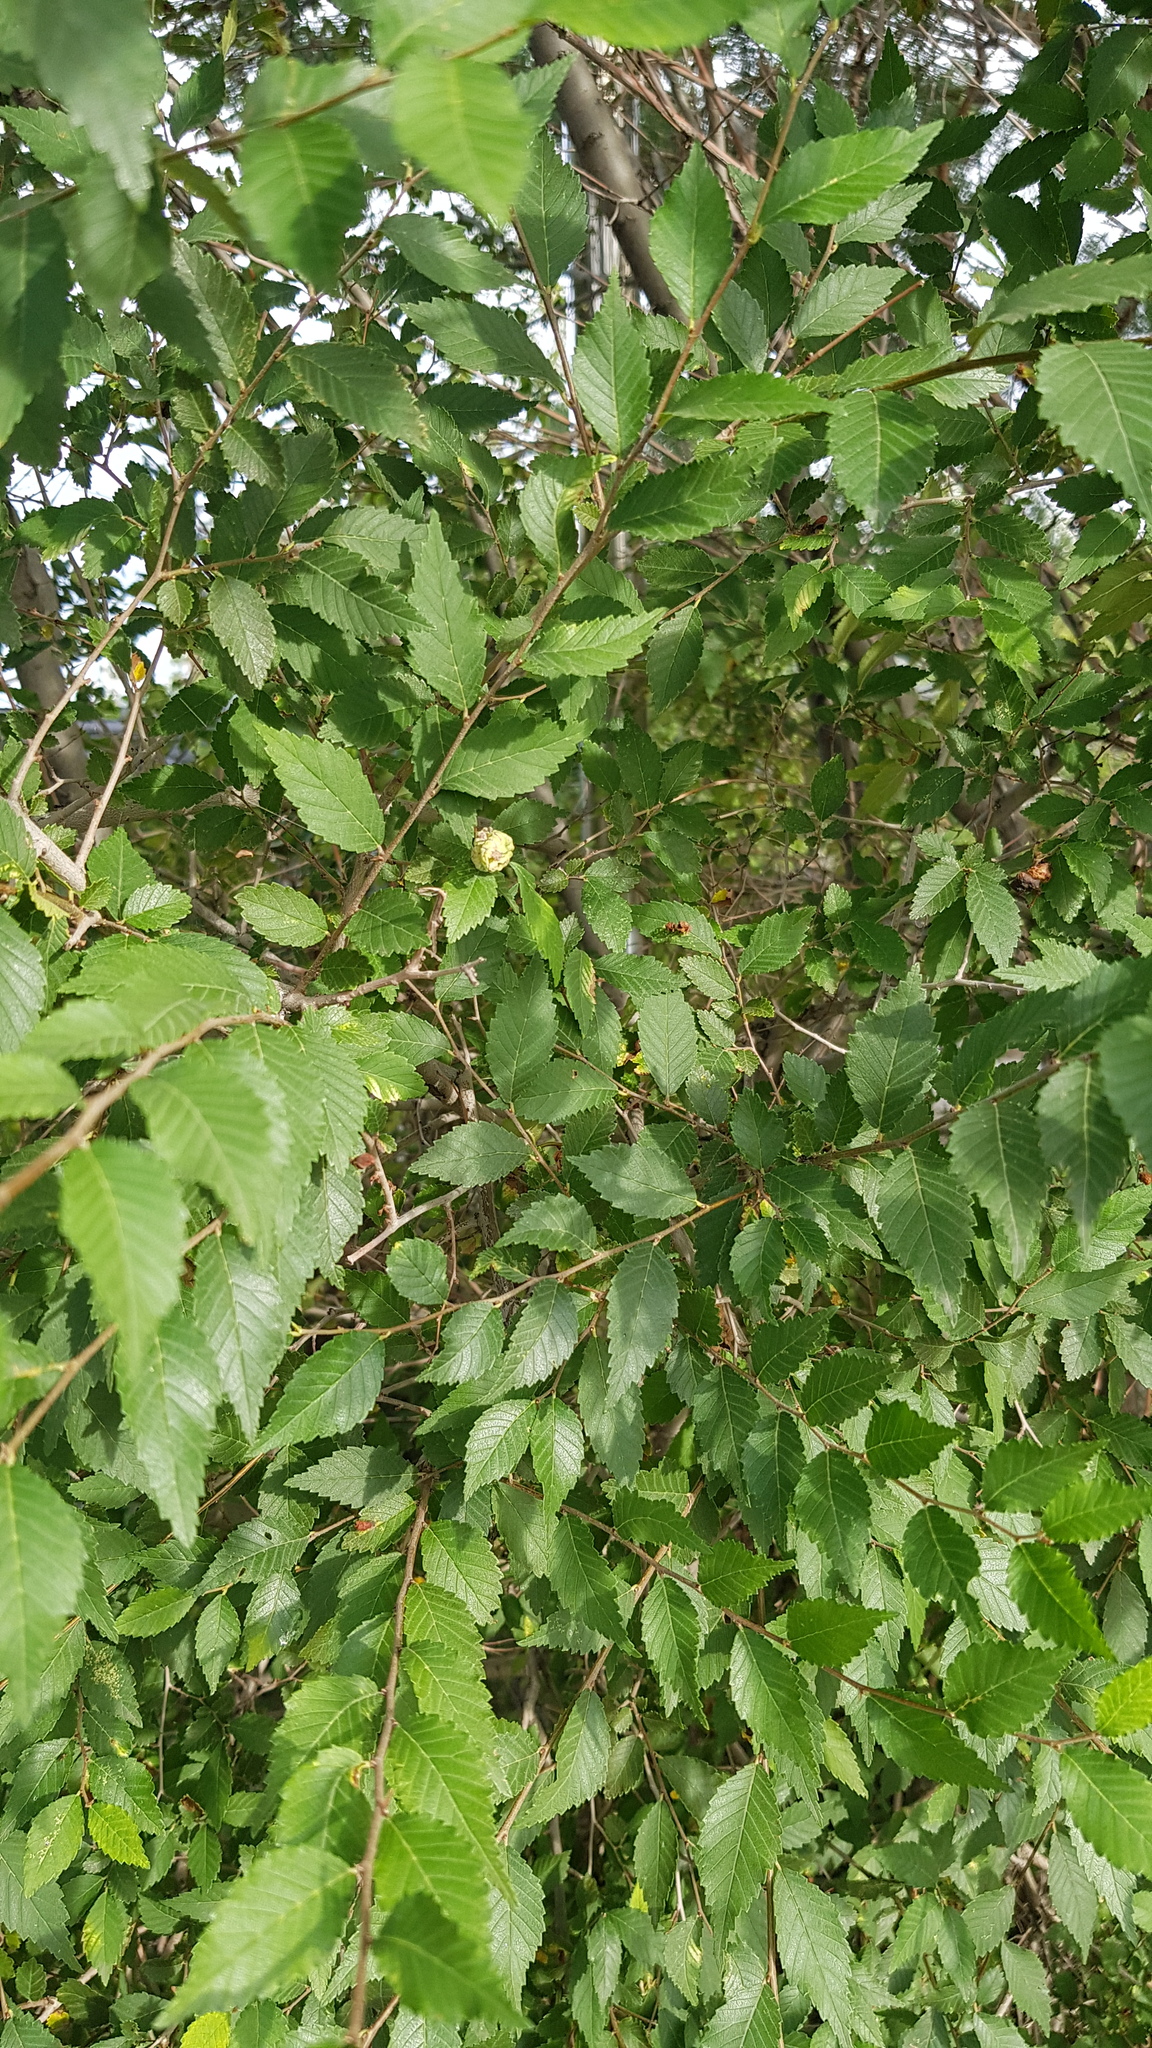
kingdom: Plantae
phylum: Tracheophyta
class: Magnoliopsida
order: Rosales
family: Ulmaceae
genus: Ulmus
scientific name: Ulmus pumila
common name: Siberian elm
